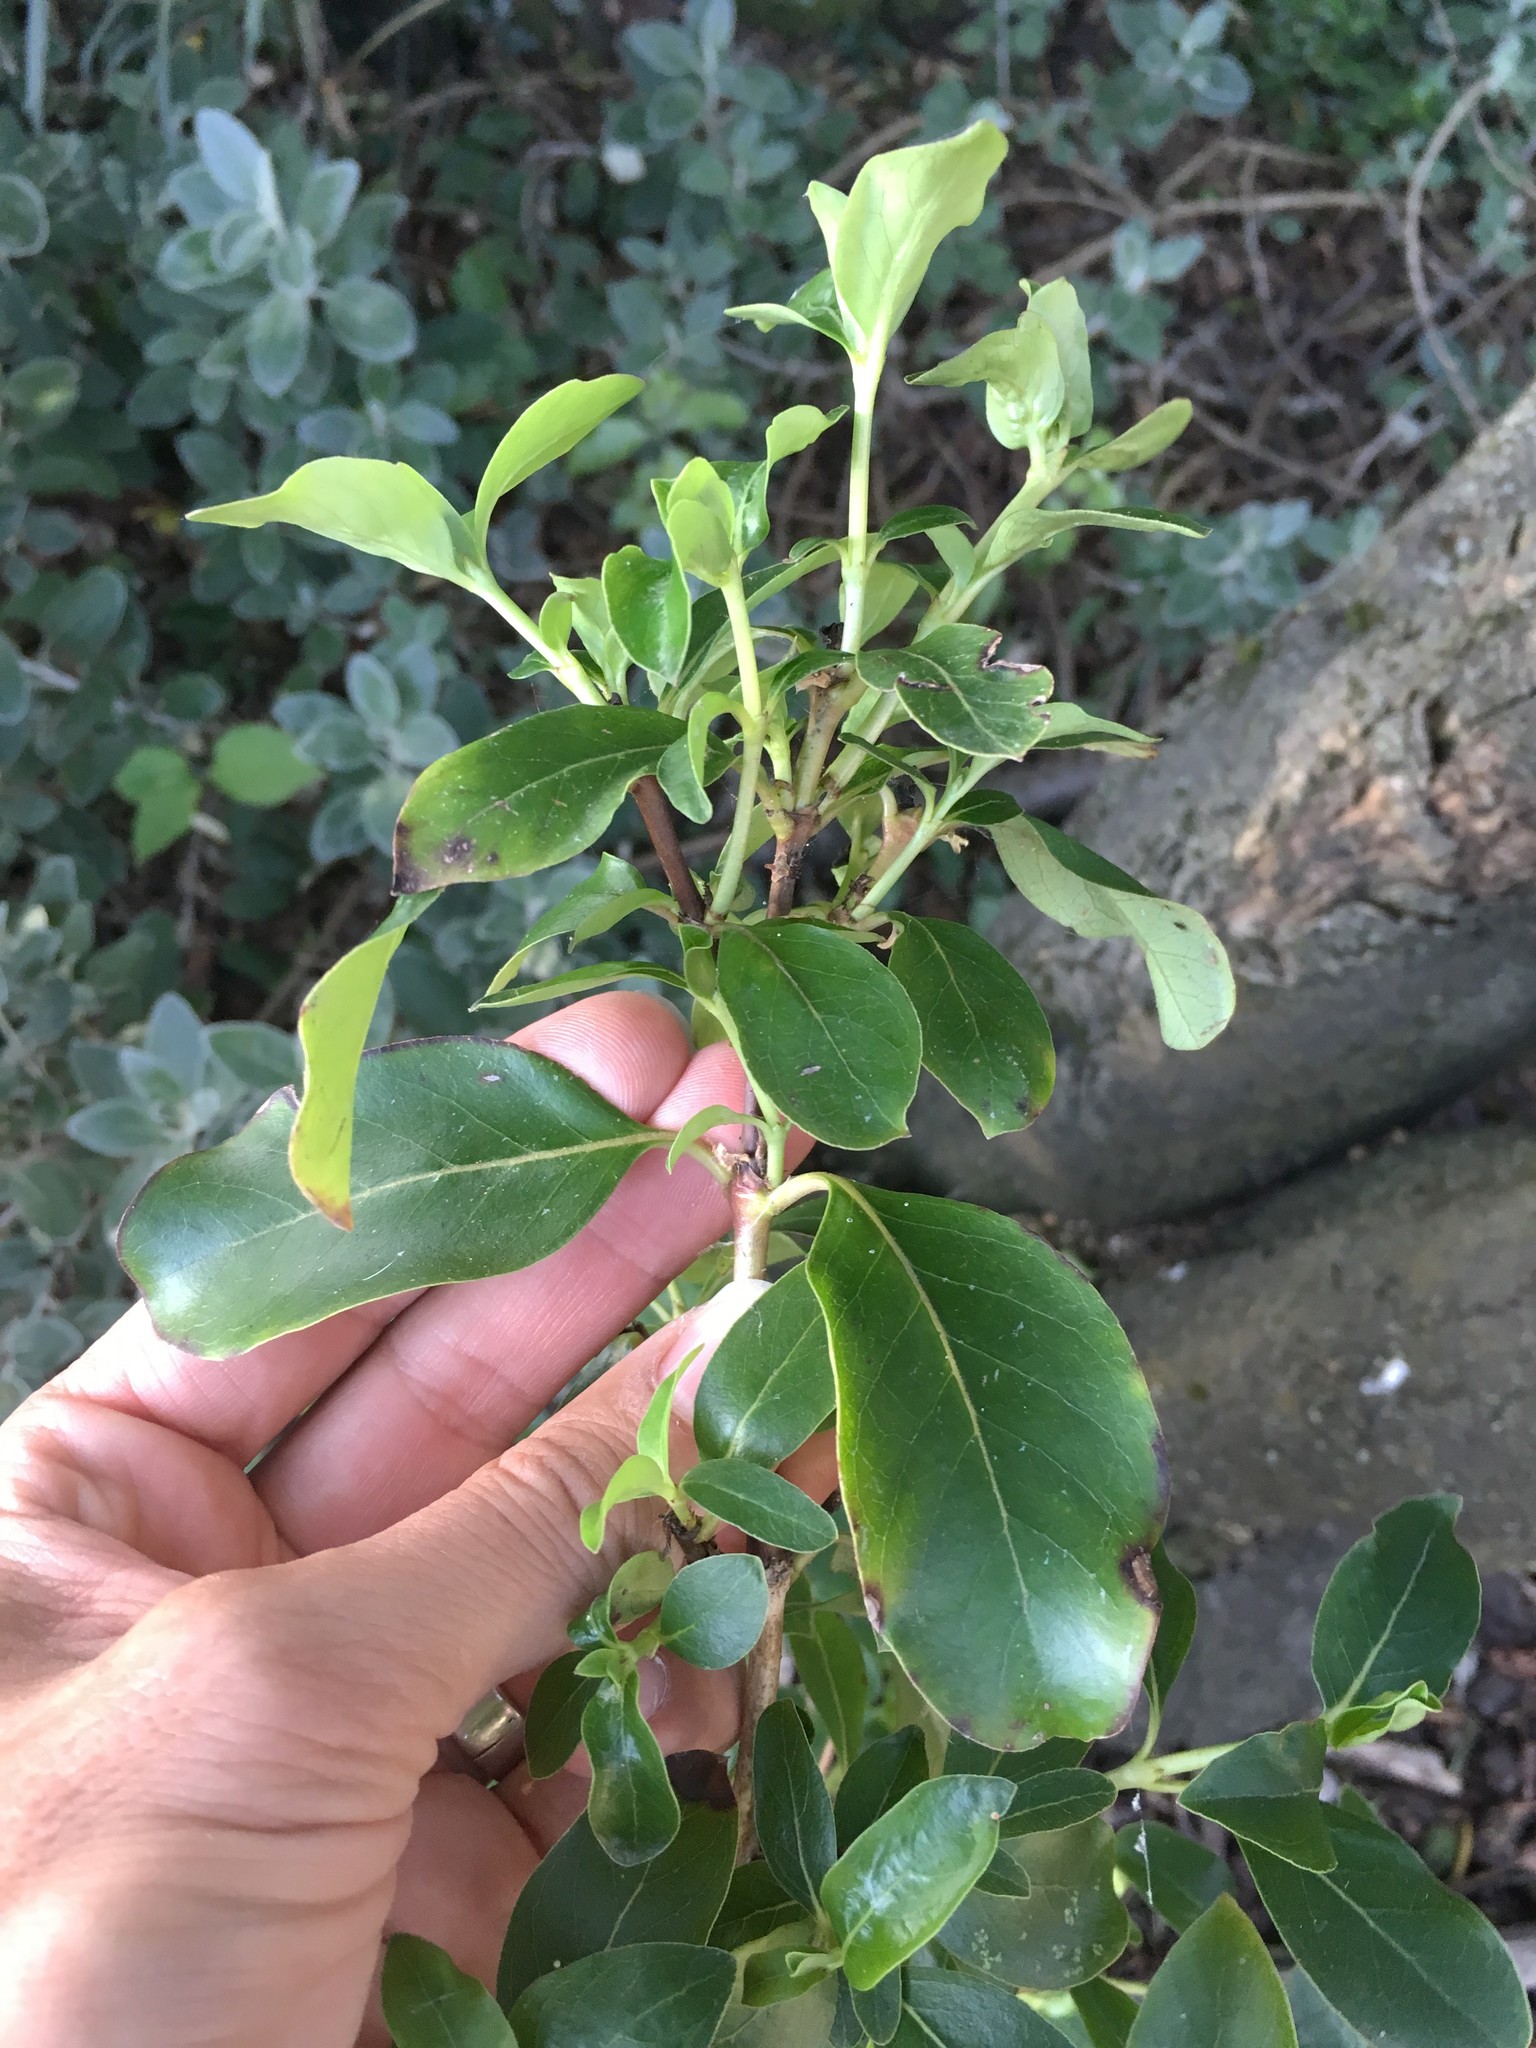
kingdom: Plantae
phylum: Tracheophyta
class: Magnoliopsida
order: Gentianales
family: Rubiaceae
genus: Coprosma
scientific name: Coprosma robusta
